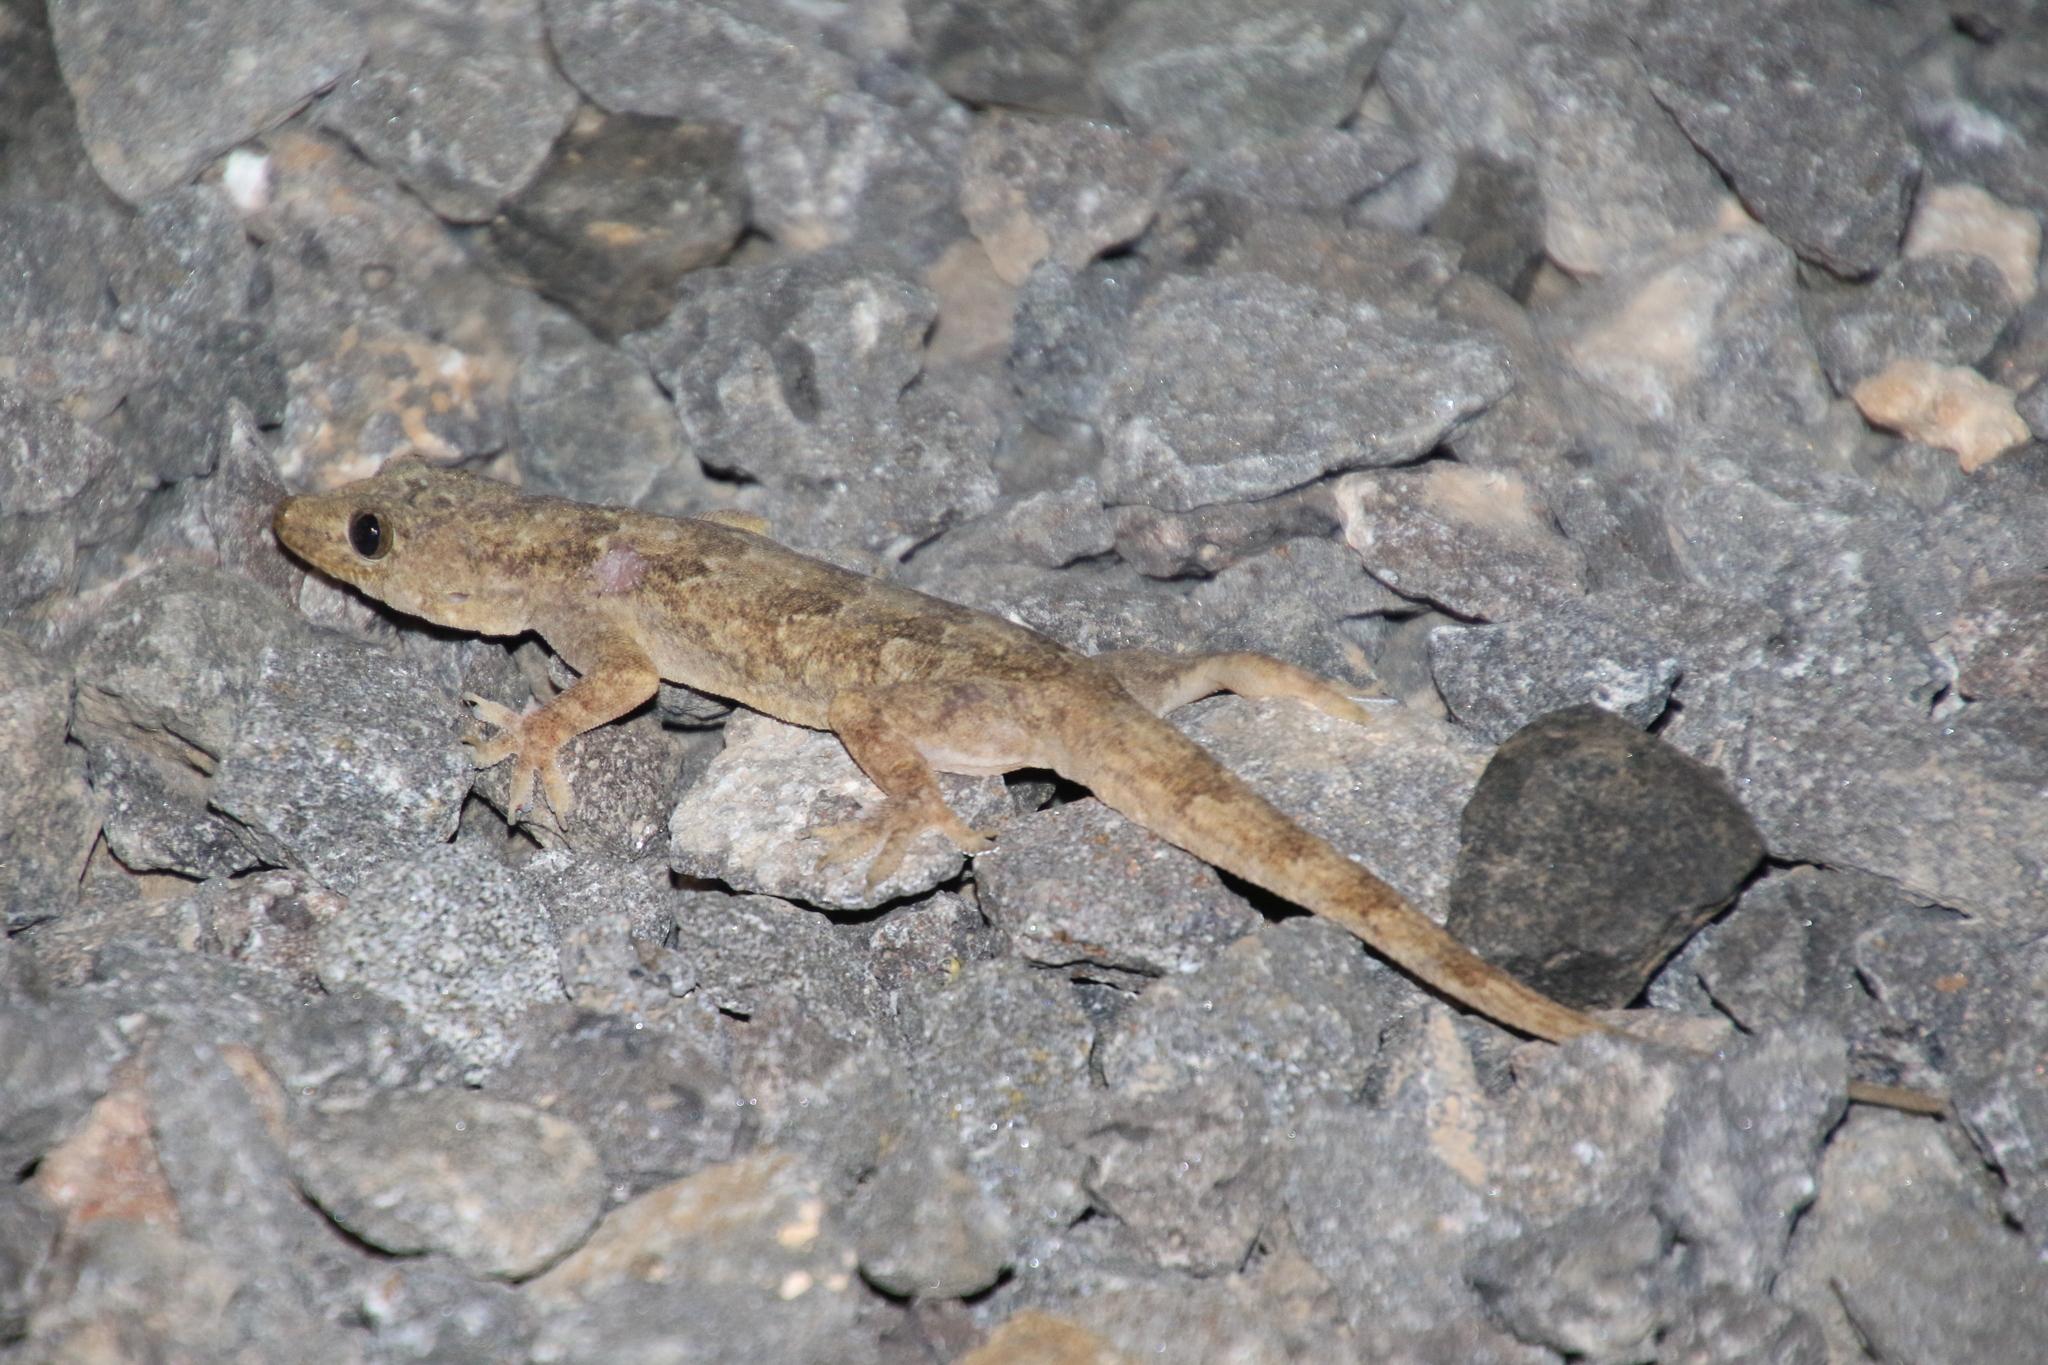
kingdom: Animalia
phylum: Chordata
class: Squamata
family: Gekkonidae
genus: Hemidactylus
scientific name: Hemidactylus flaviviridis
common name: Northern house gecko
